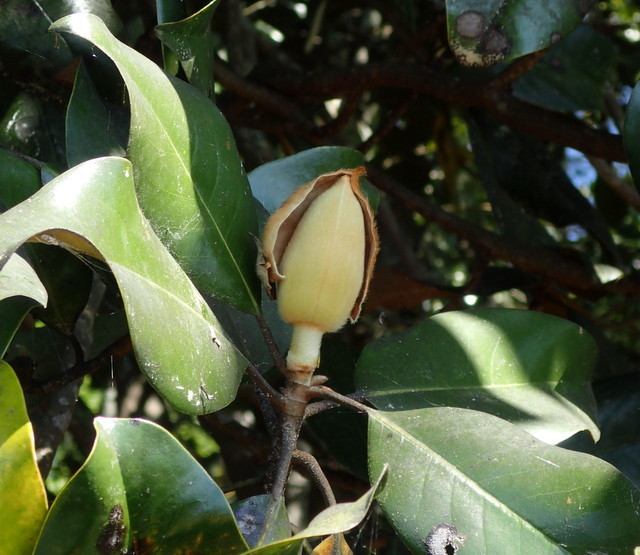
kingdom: Plantae
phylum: Tracheophyta
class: Magnoliopsida
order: Magnoliales
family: Magnoliaceae
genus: Magnolia
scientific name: Magnolia grandiflora
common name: Southern magnolia
